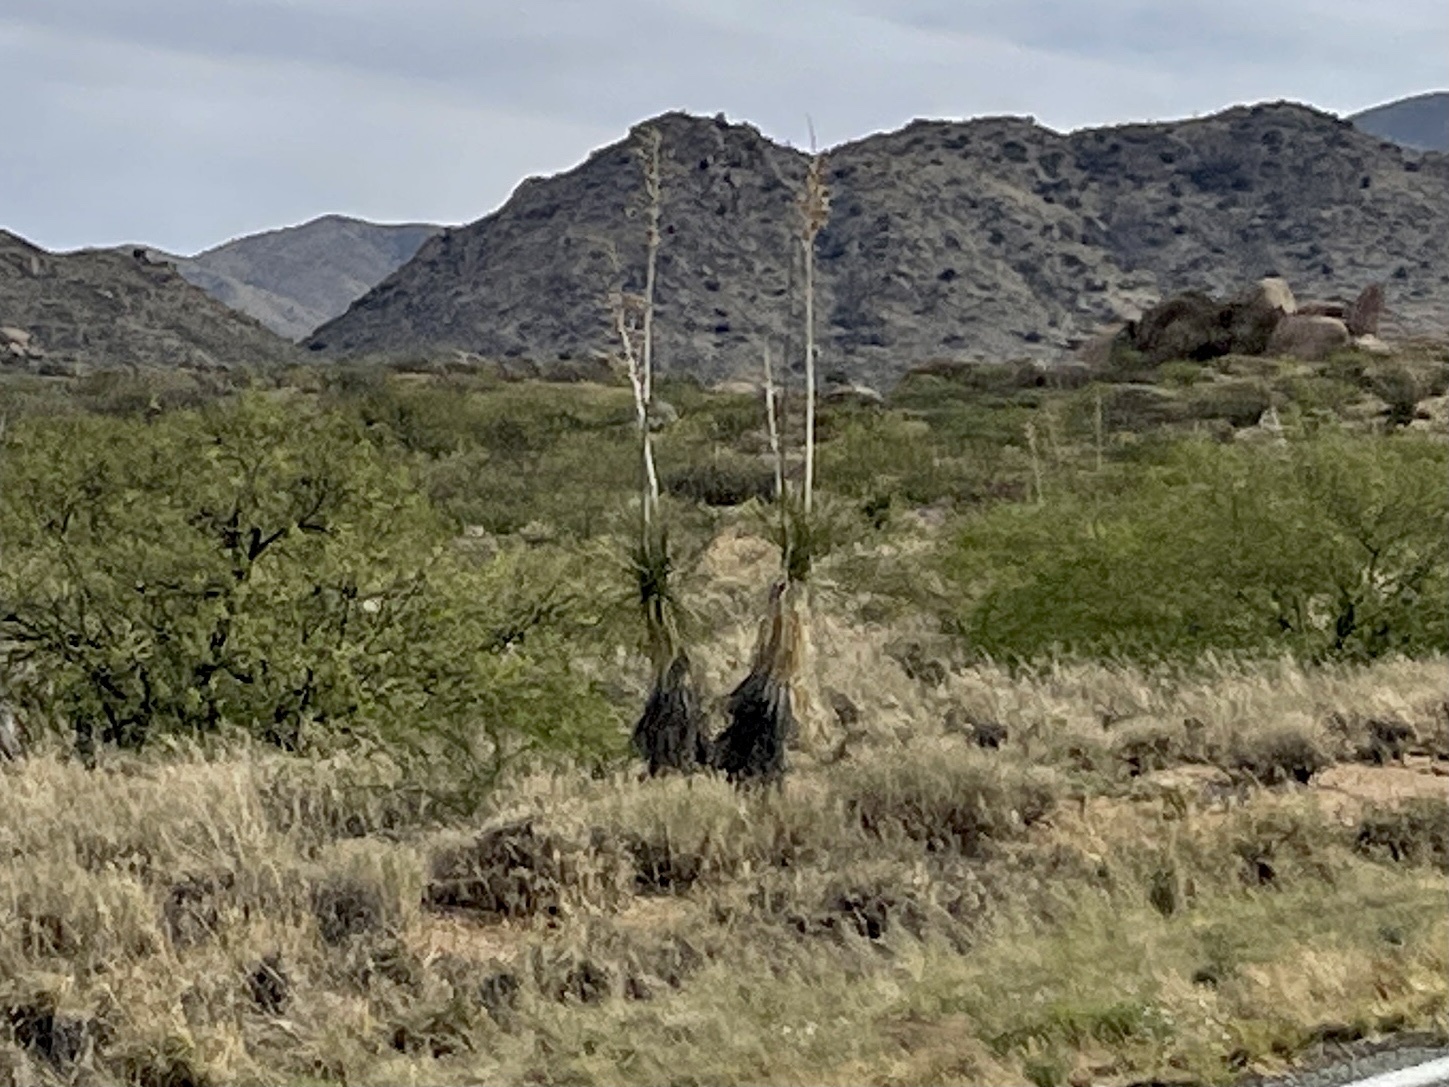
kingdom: Plantae
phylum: Tracheophyta
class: Liliopsida
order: Asparagales
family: Asparagaceae
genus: Yucca
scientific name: Yucca elata
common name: Palmella
